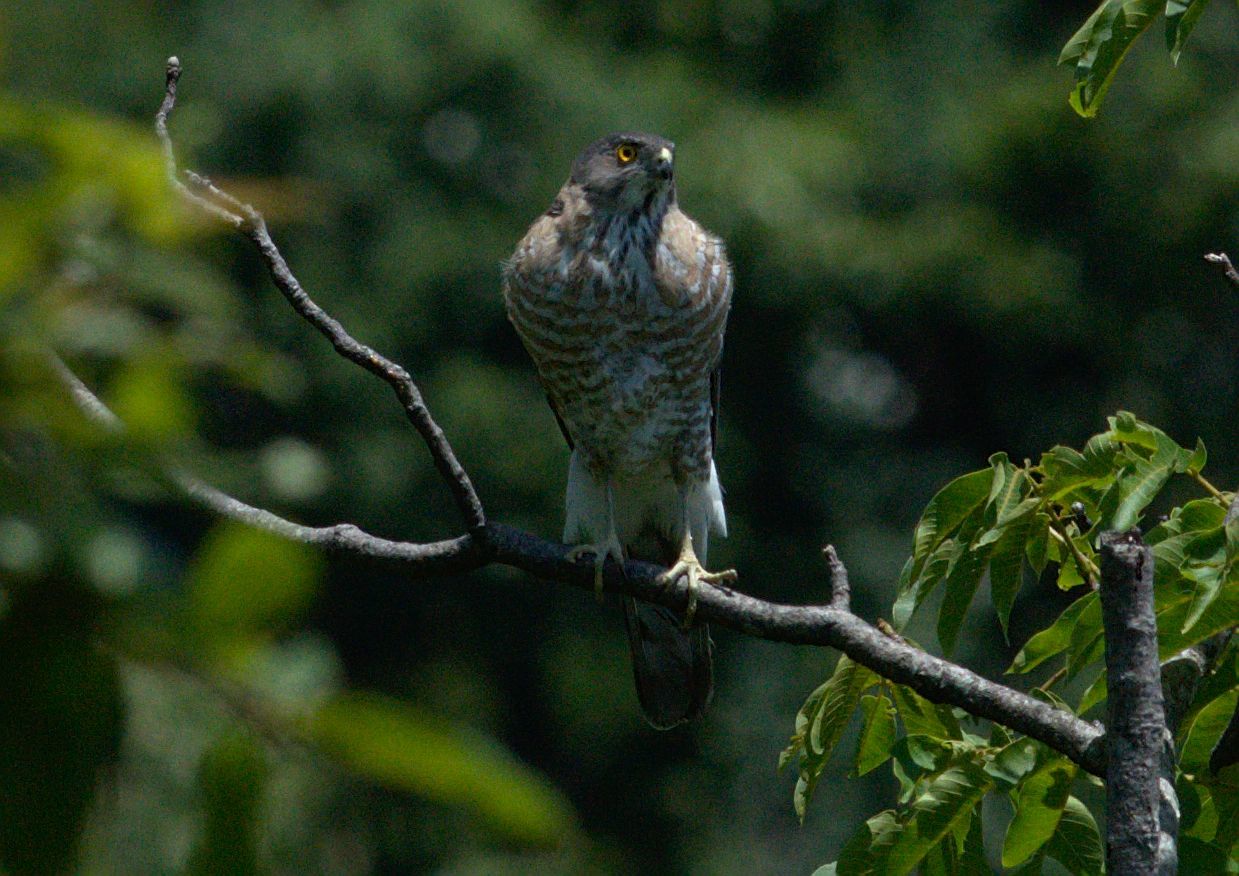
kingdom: Animalia
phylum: Chordata
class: Aves
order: Accipitriformes
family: Accipitridae
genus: Accipiter
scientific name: Accipiter virgatus
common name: Besra
